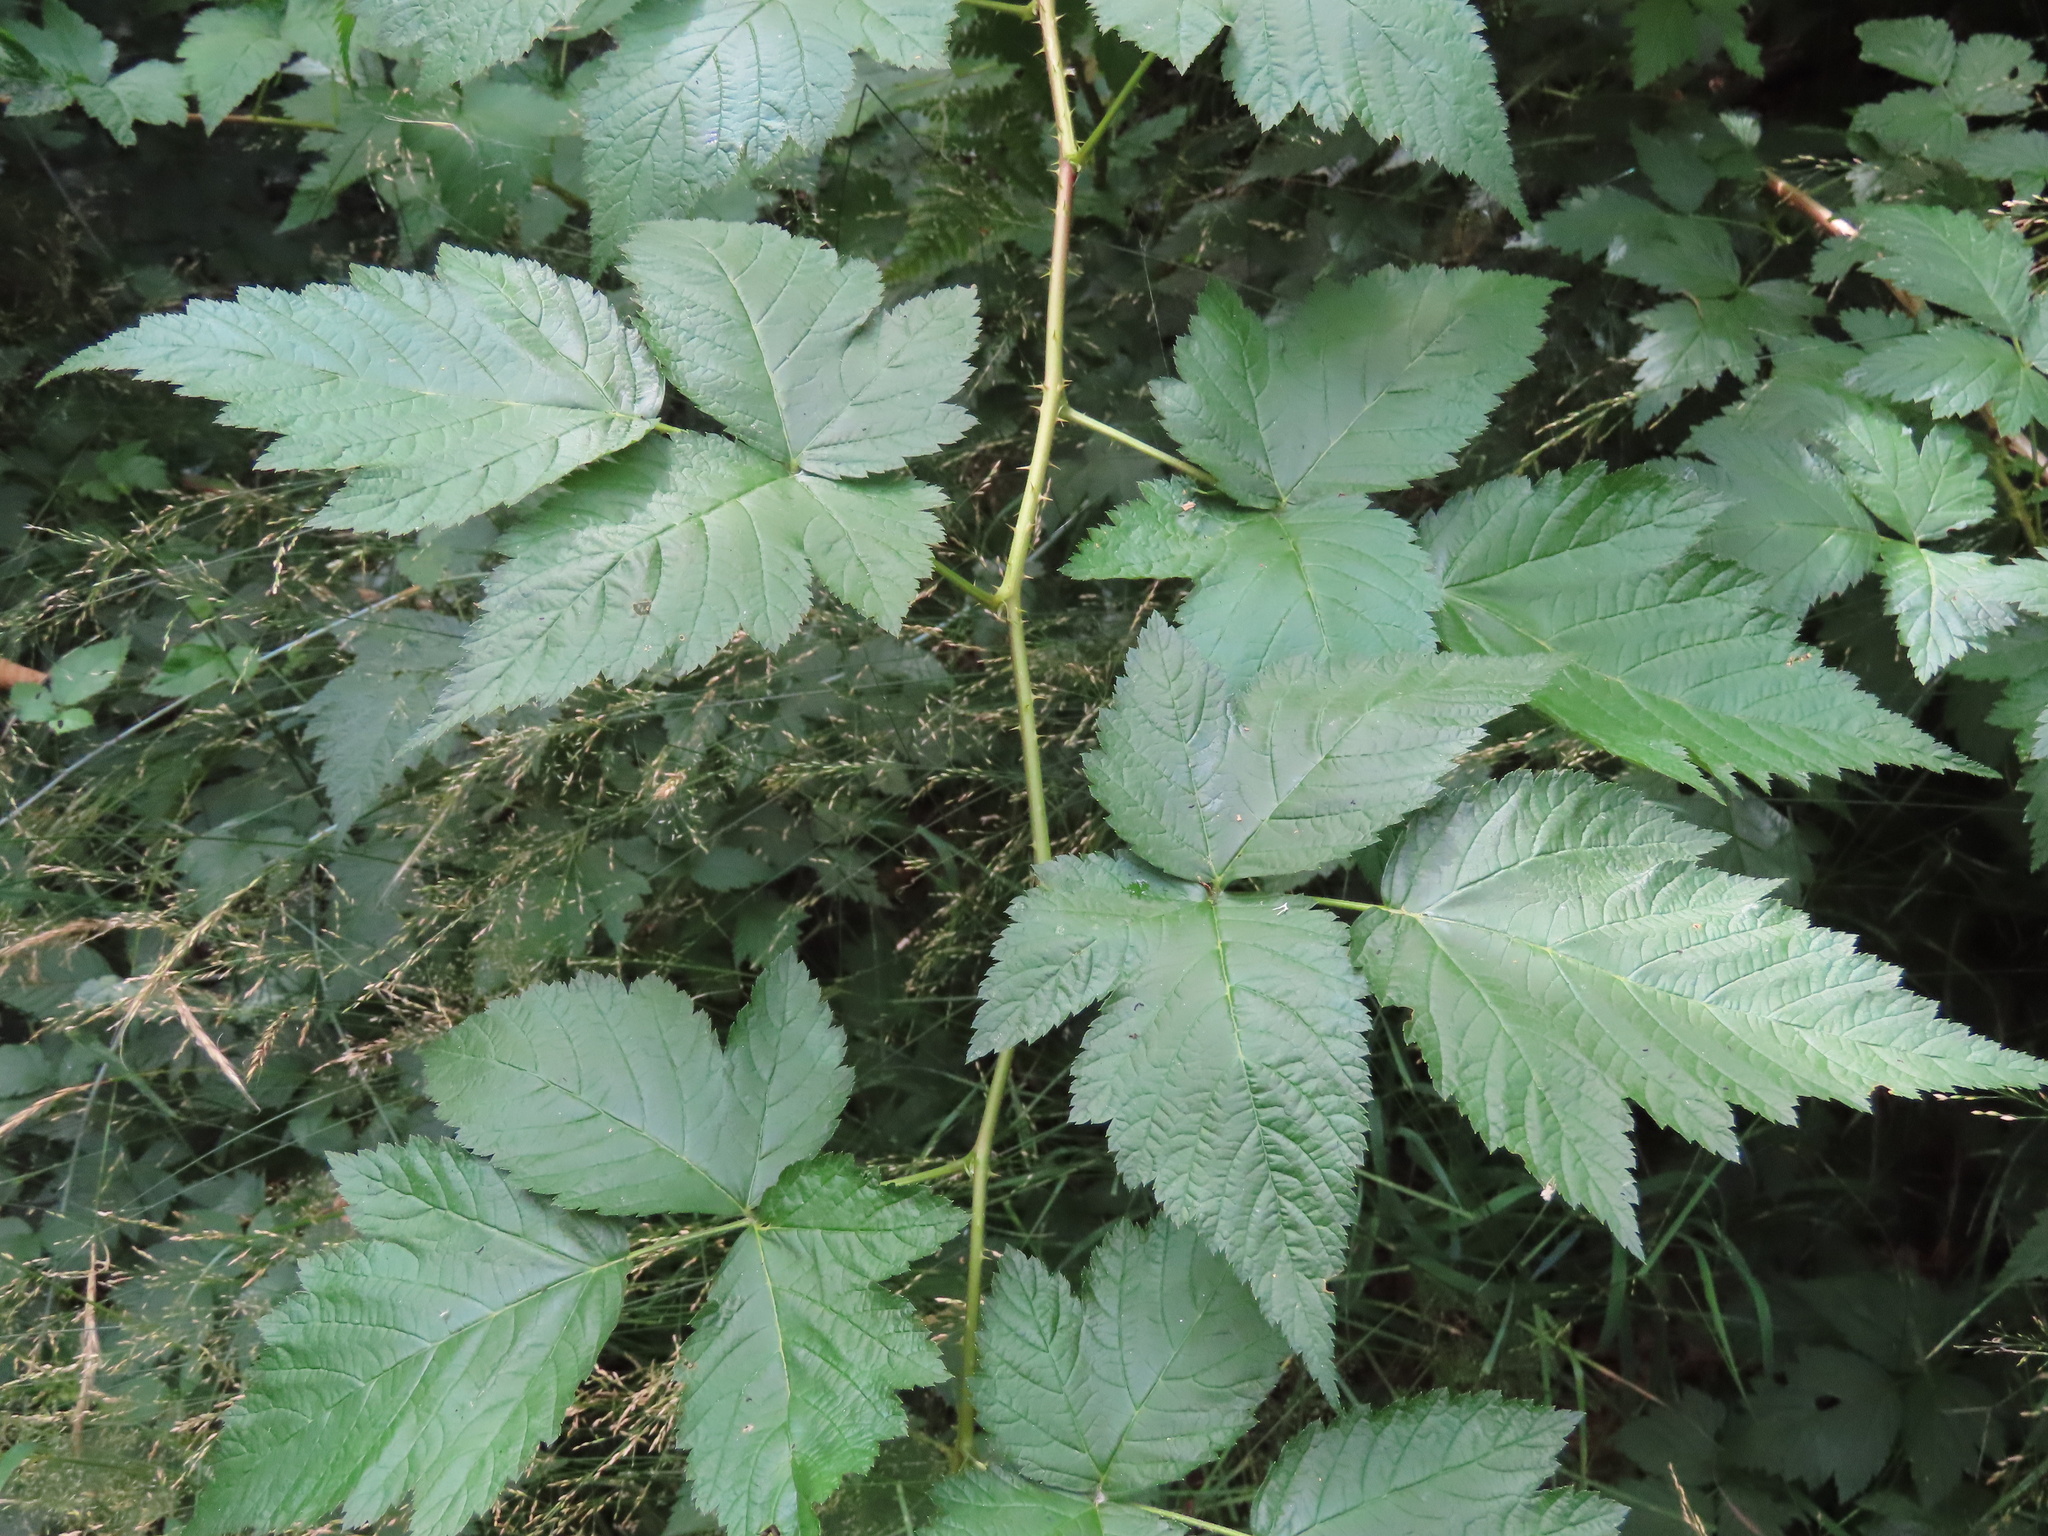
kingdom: Plantae
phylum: Tracheophyta
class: Magnoliopsida
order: Rosales
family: Rosaceae
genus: Rubus
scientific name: Rubus spectabilis
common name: Salmonberry
